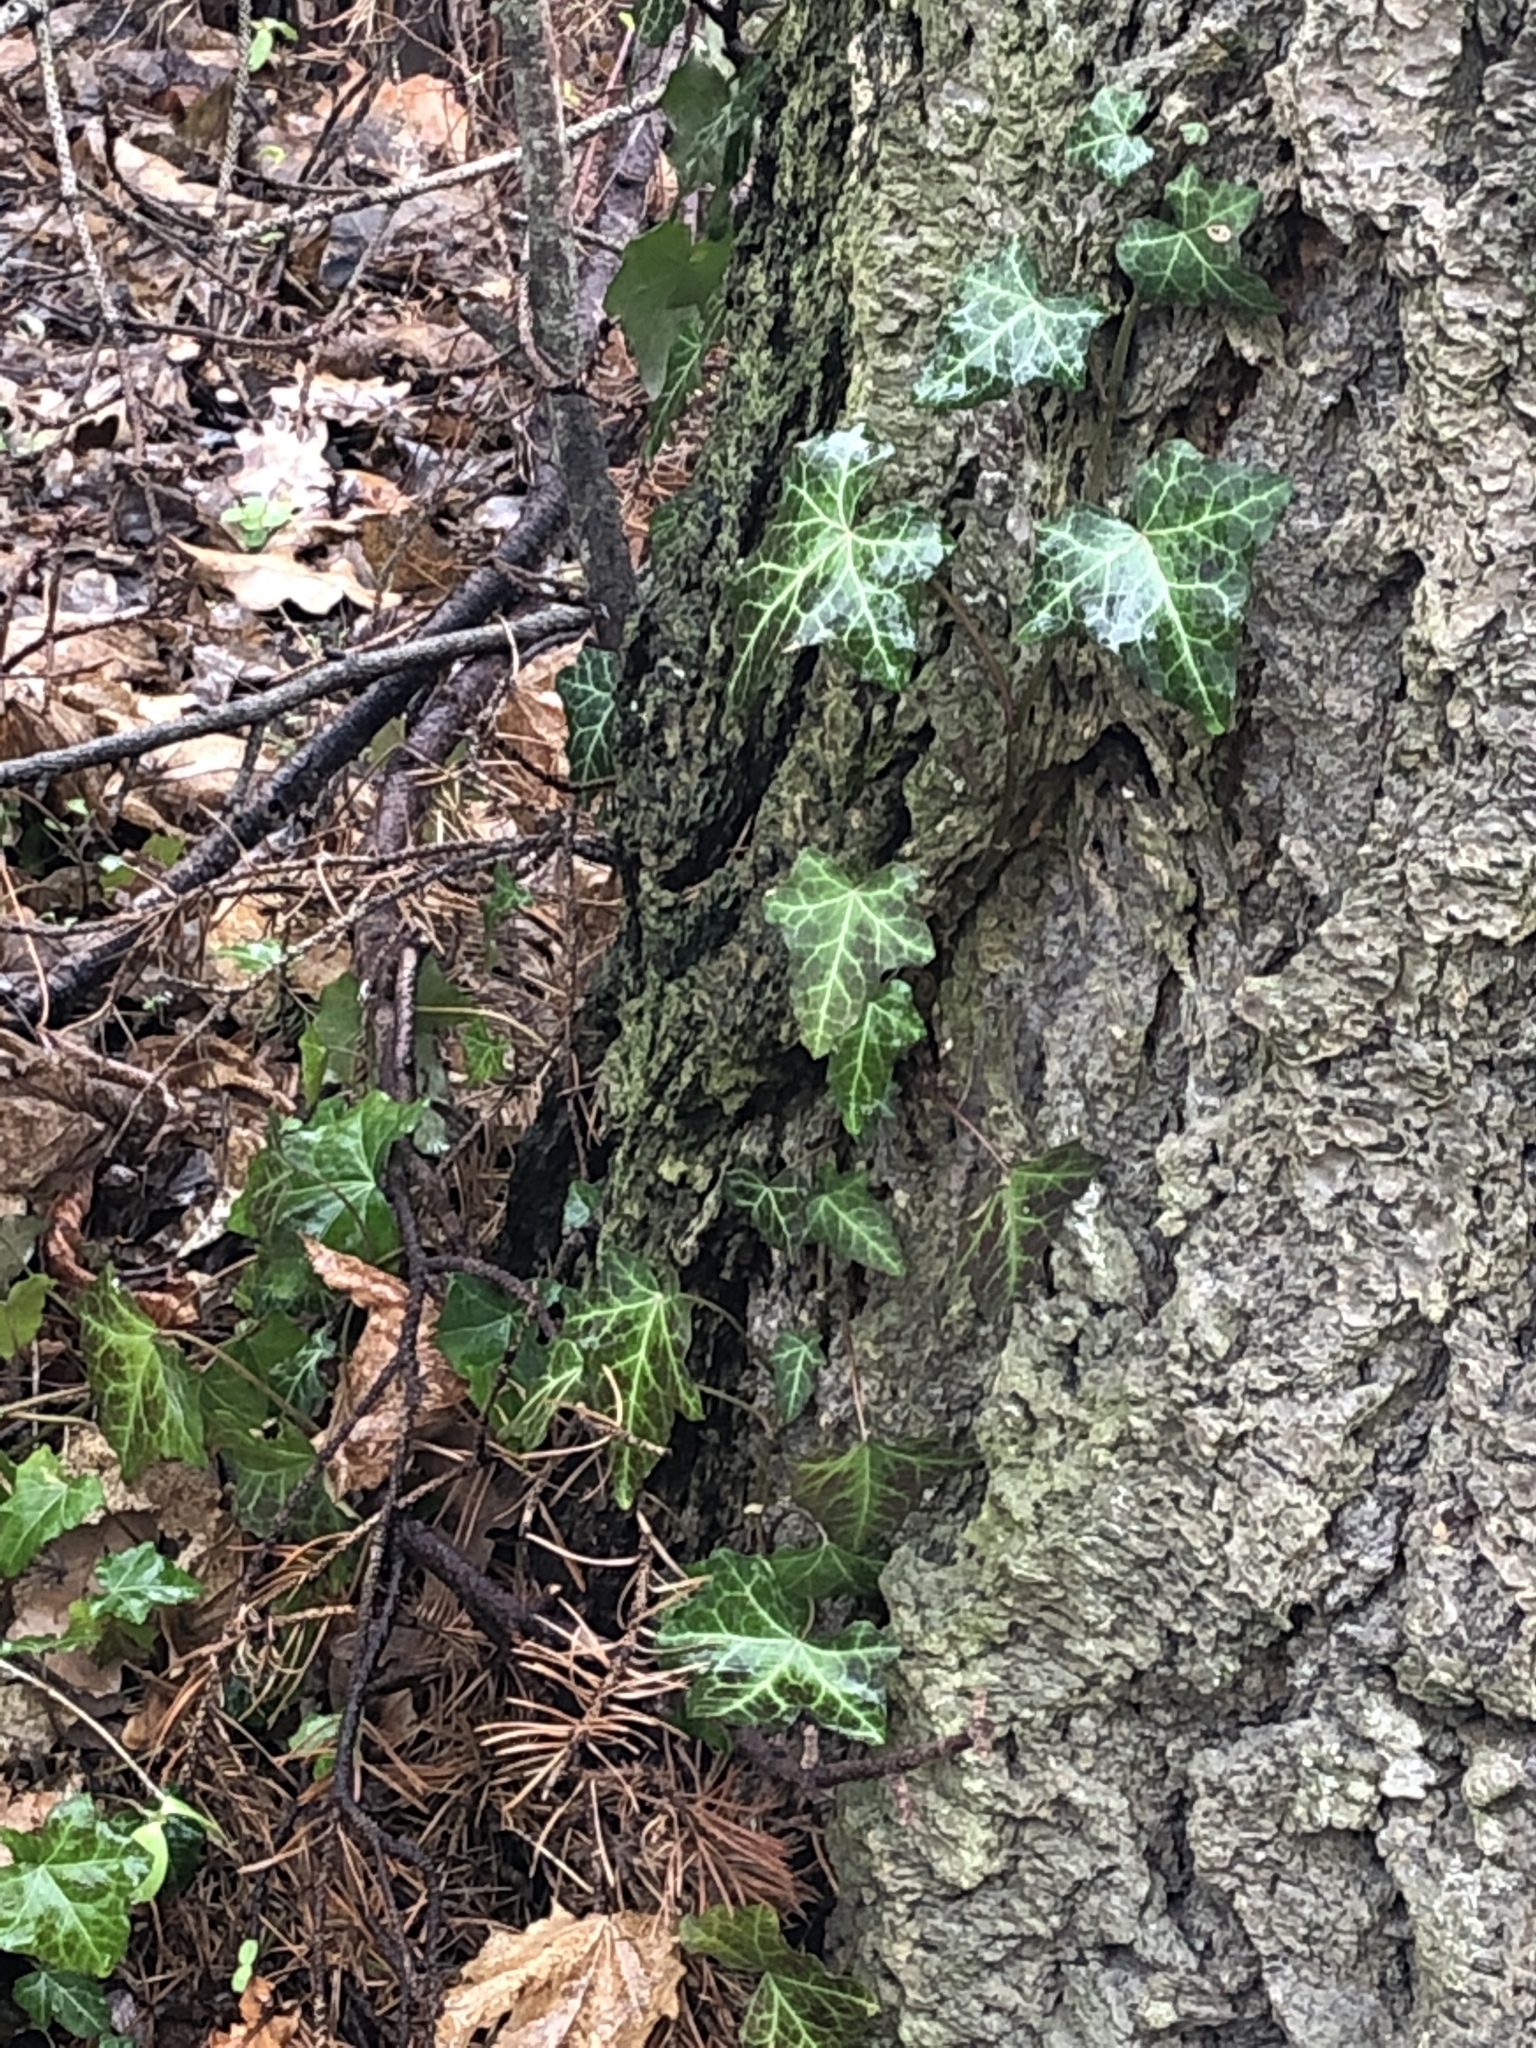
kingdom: Plantae
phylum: Tracheophyta
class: Magnoliopsida
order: Apiales
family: Araliaceae
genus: Hedera
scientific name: Hedera helix
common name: Ivy
